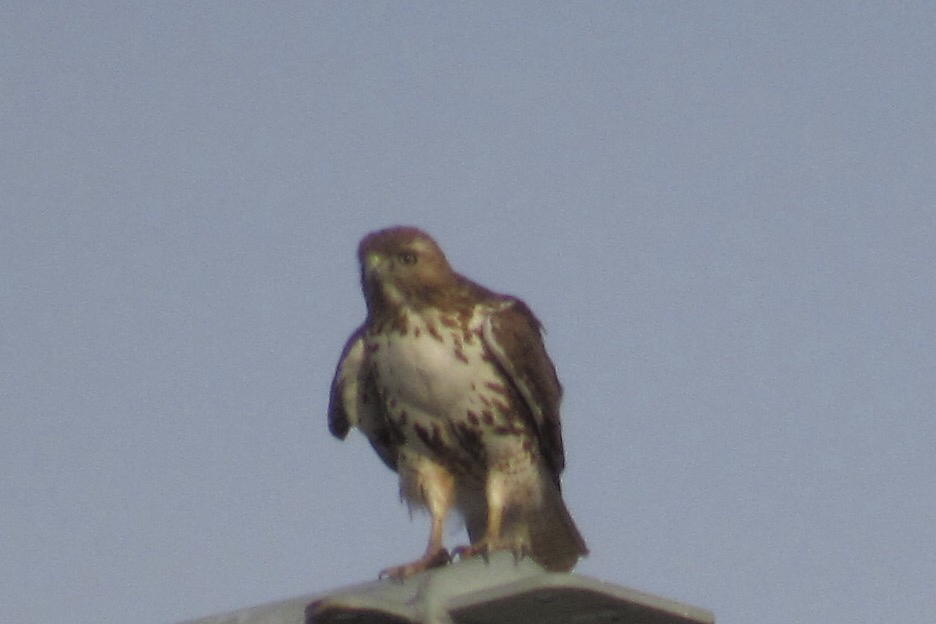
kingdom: Animalia
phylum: Chordata
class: Aves
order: Accipitriformes
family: Accipitridae
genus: Buteo
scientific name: Buteo jamaicensis
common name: Red-tailed hawk
